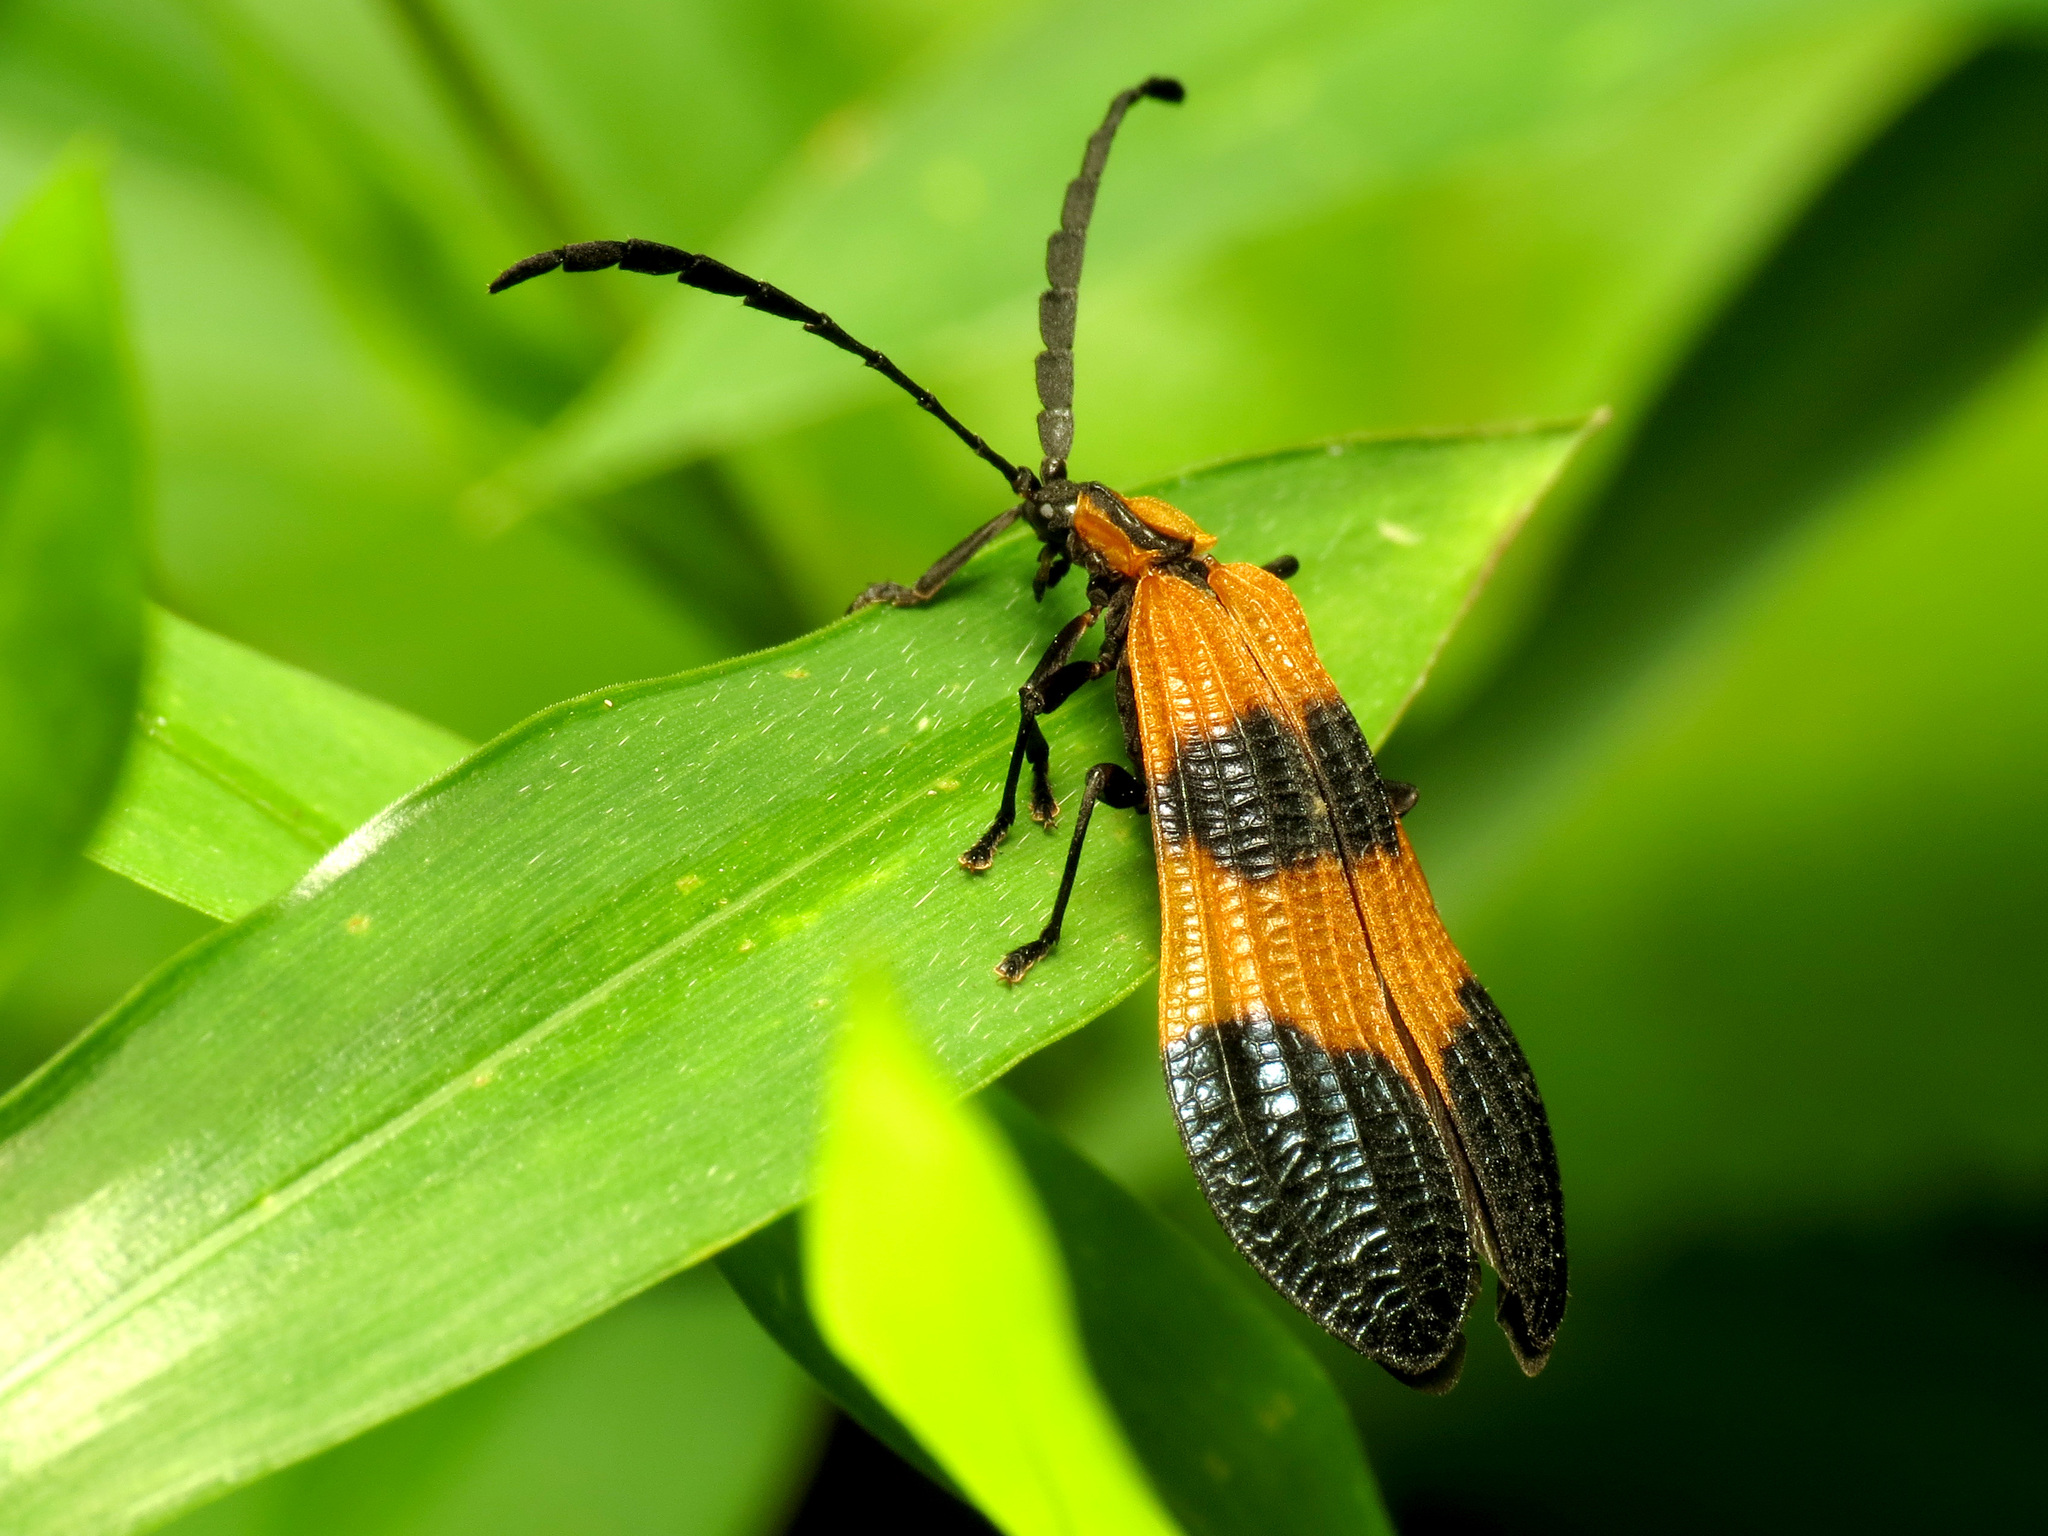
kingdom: Animalia
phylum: Arthropoda
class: Insecta
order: Coleoptera
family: Lycidae
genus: Calopteron
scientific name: Calopteron terminale
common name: End band net-winged beetle
